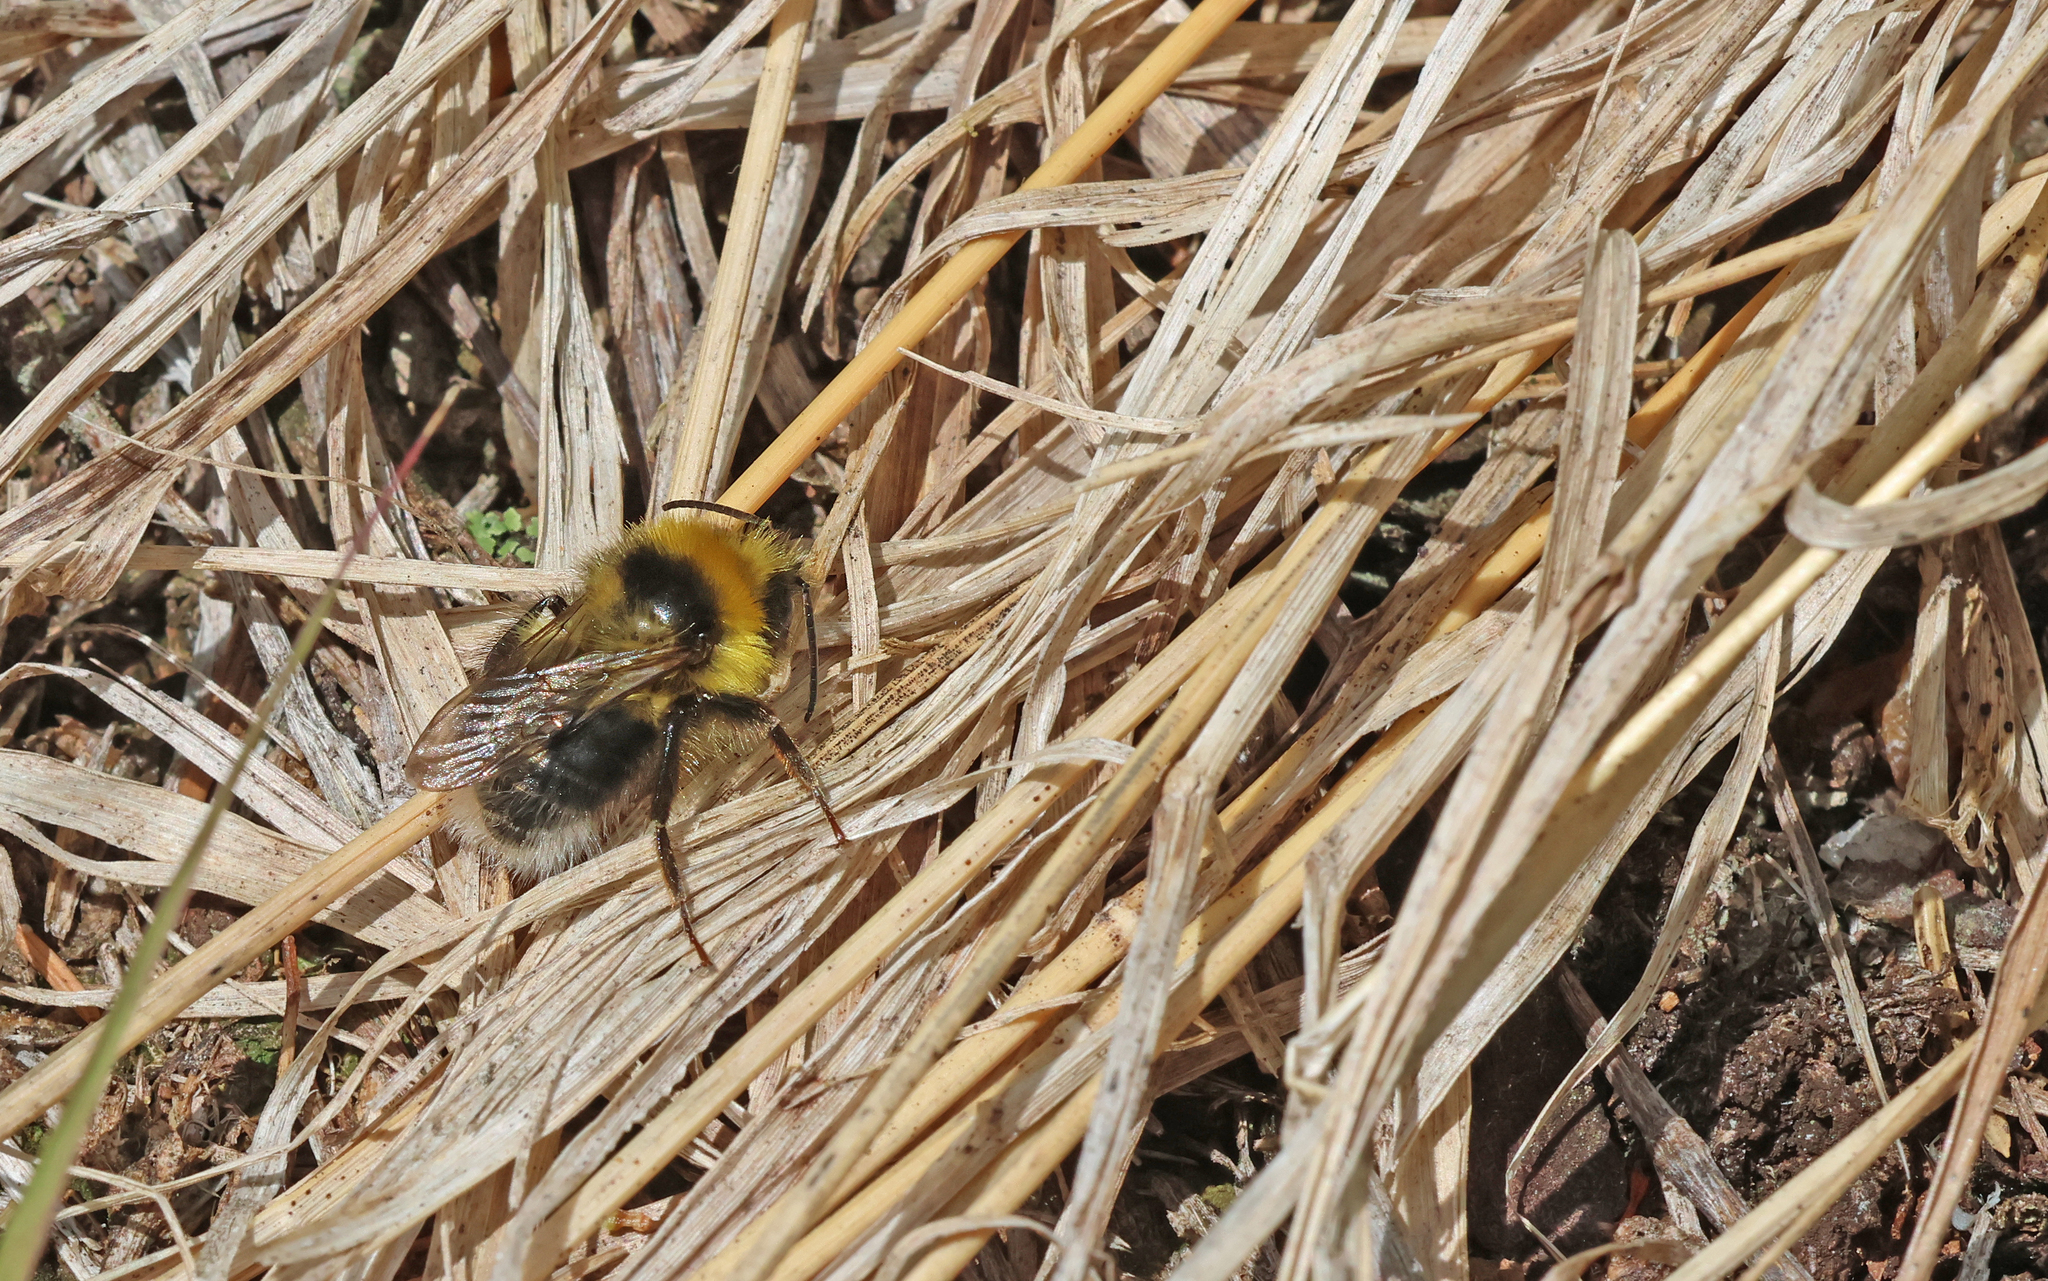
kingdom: Animalia
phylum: Arthropoda
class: Insecta
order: Hymenoptera
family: Apidae
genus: Bombus
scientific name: Bombus jonellus
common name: Heath humble-bee
